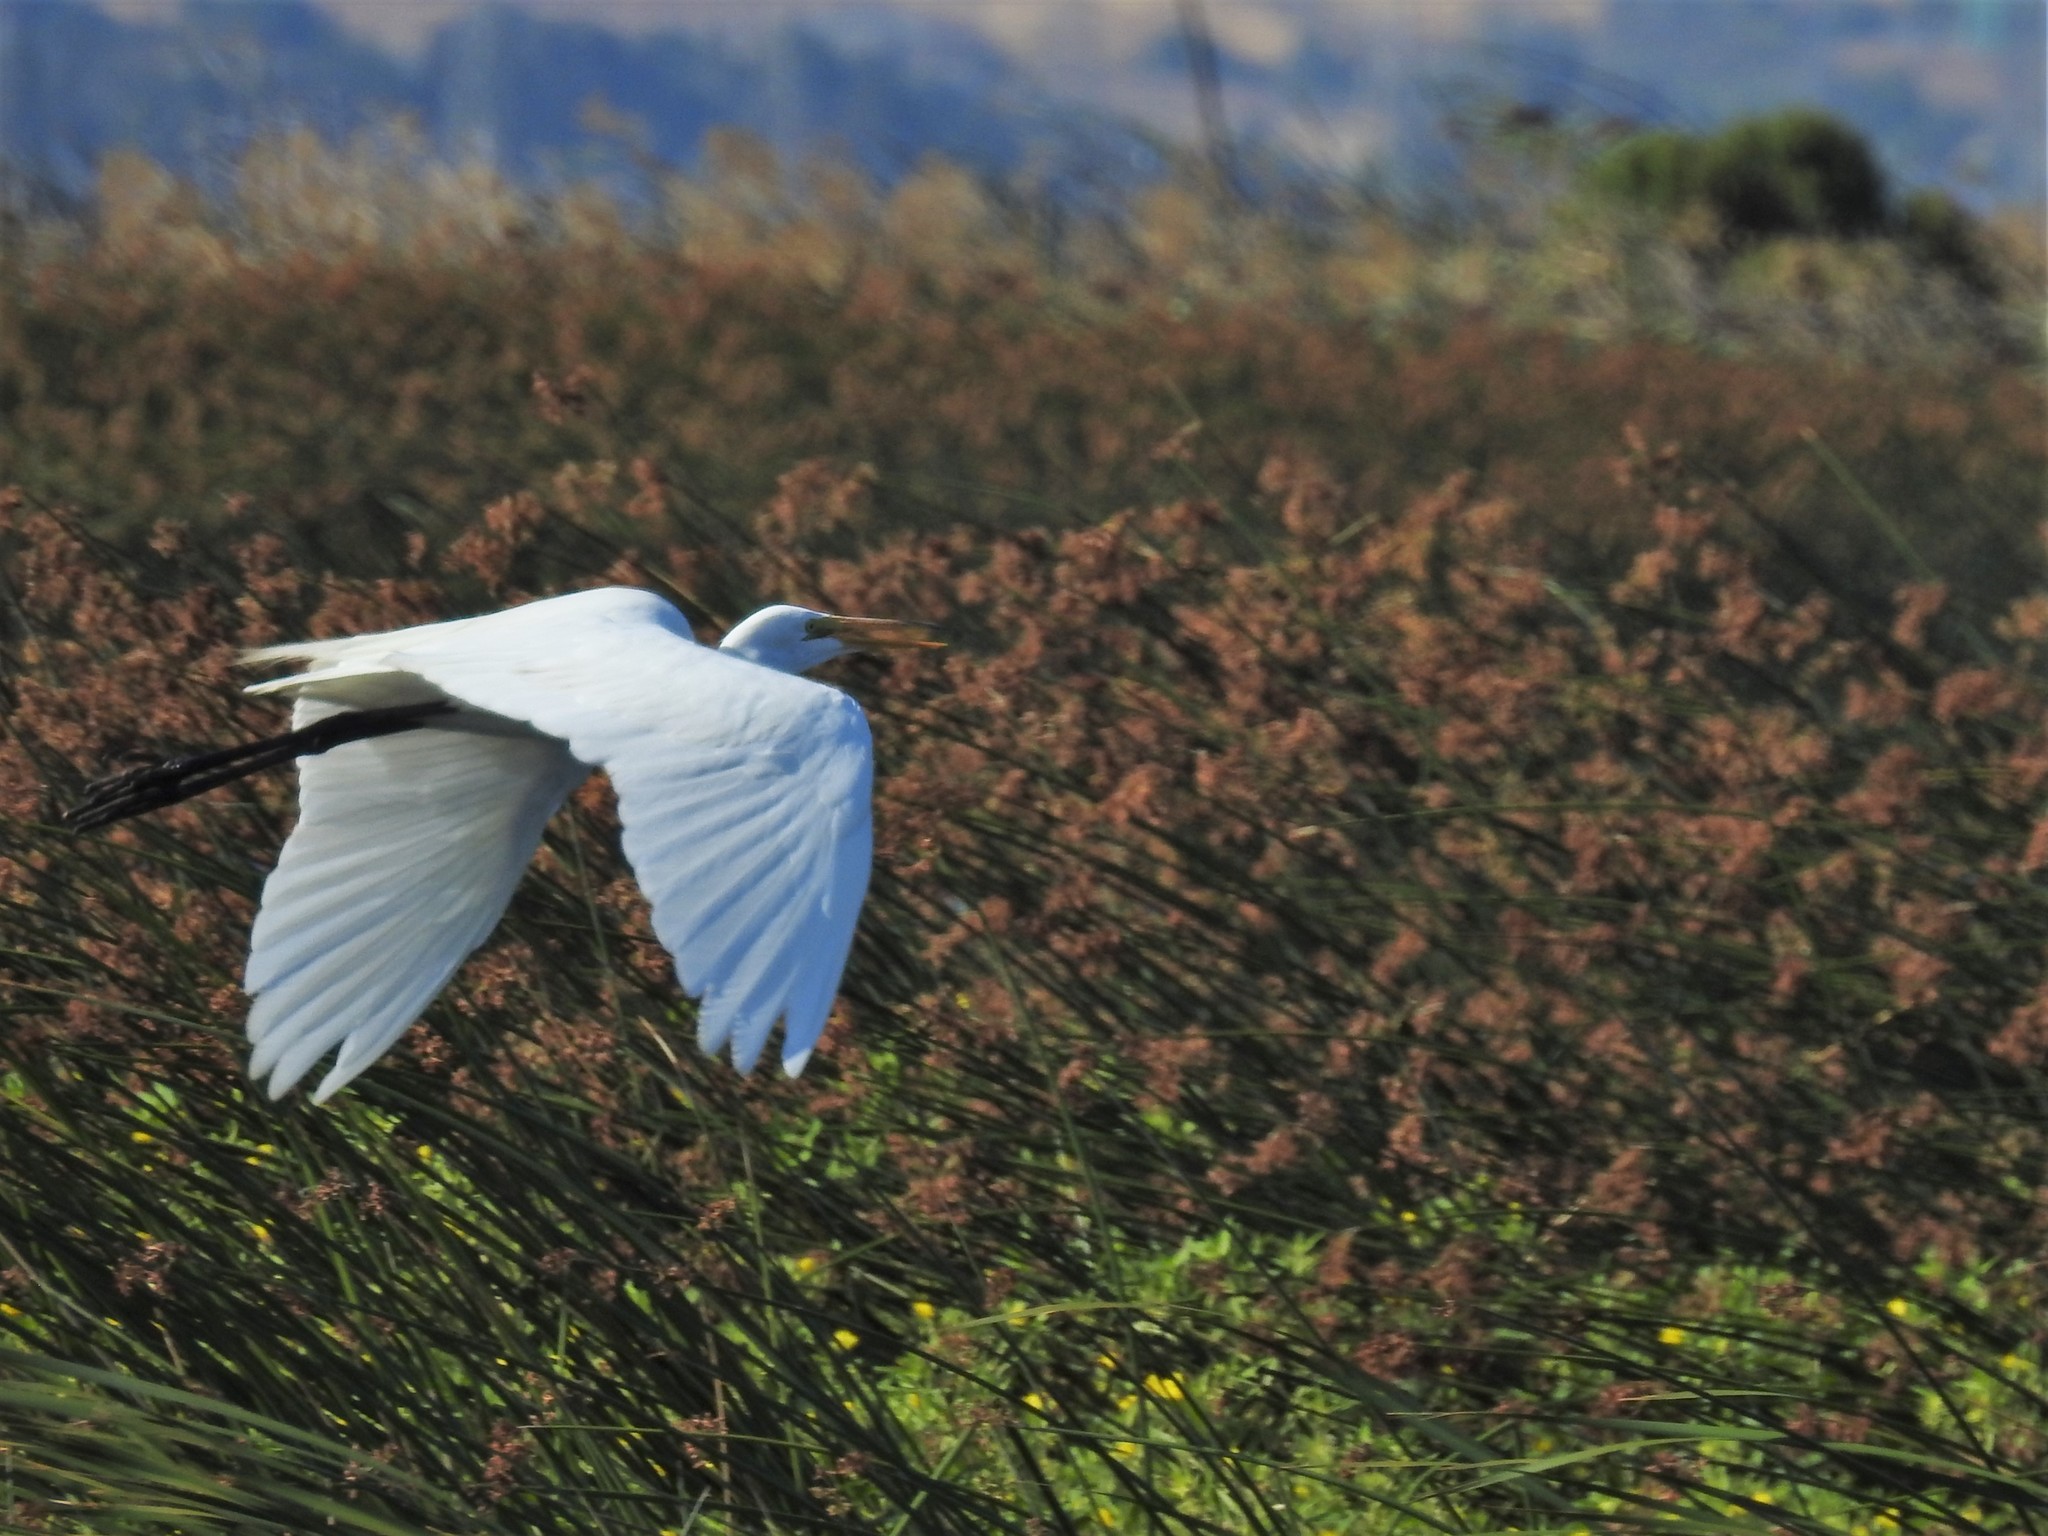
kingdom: Animalia
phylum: Chordata
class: Aves
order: Pelecaniformes
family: Ardeidae
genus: Ardea
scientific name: Ardea alba
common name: Great egret
